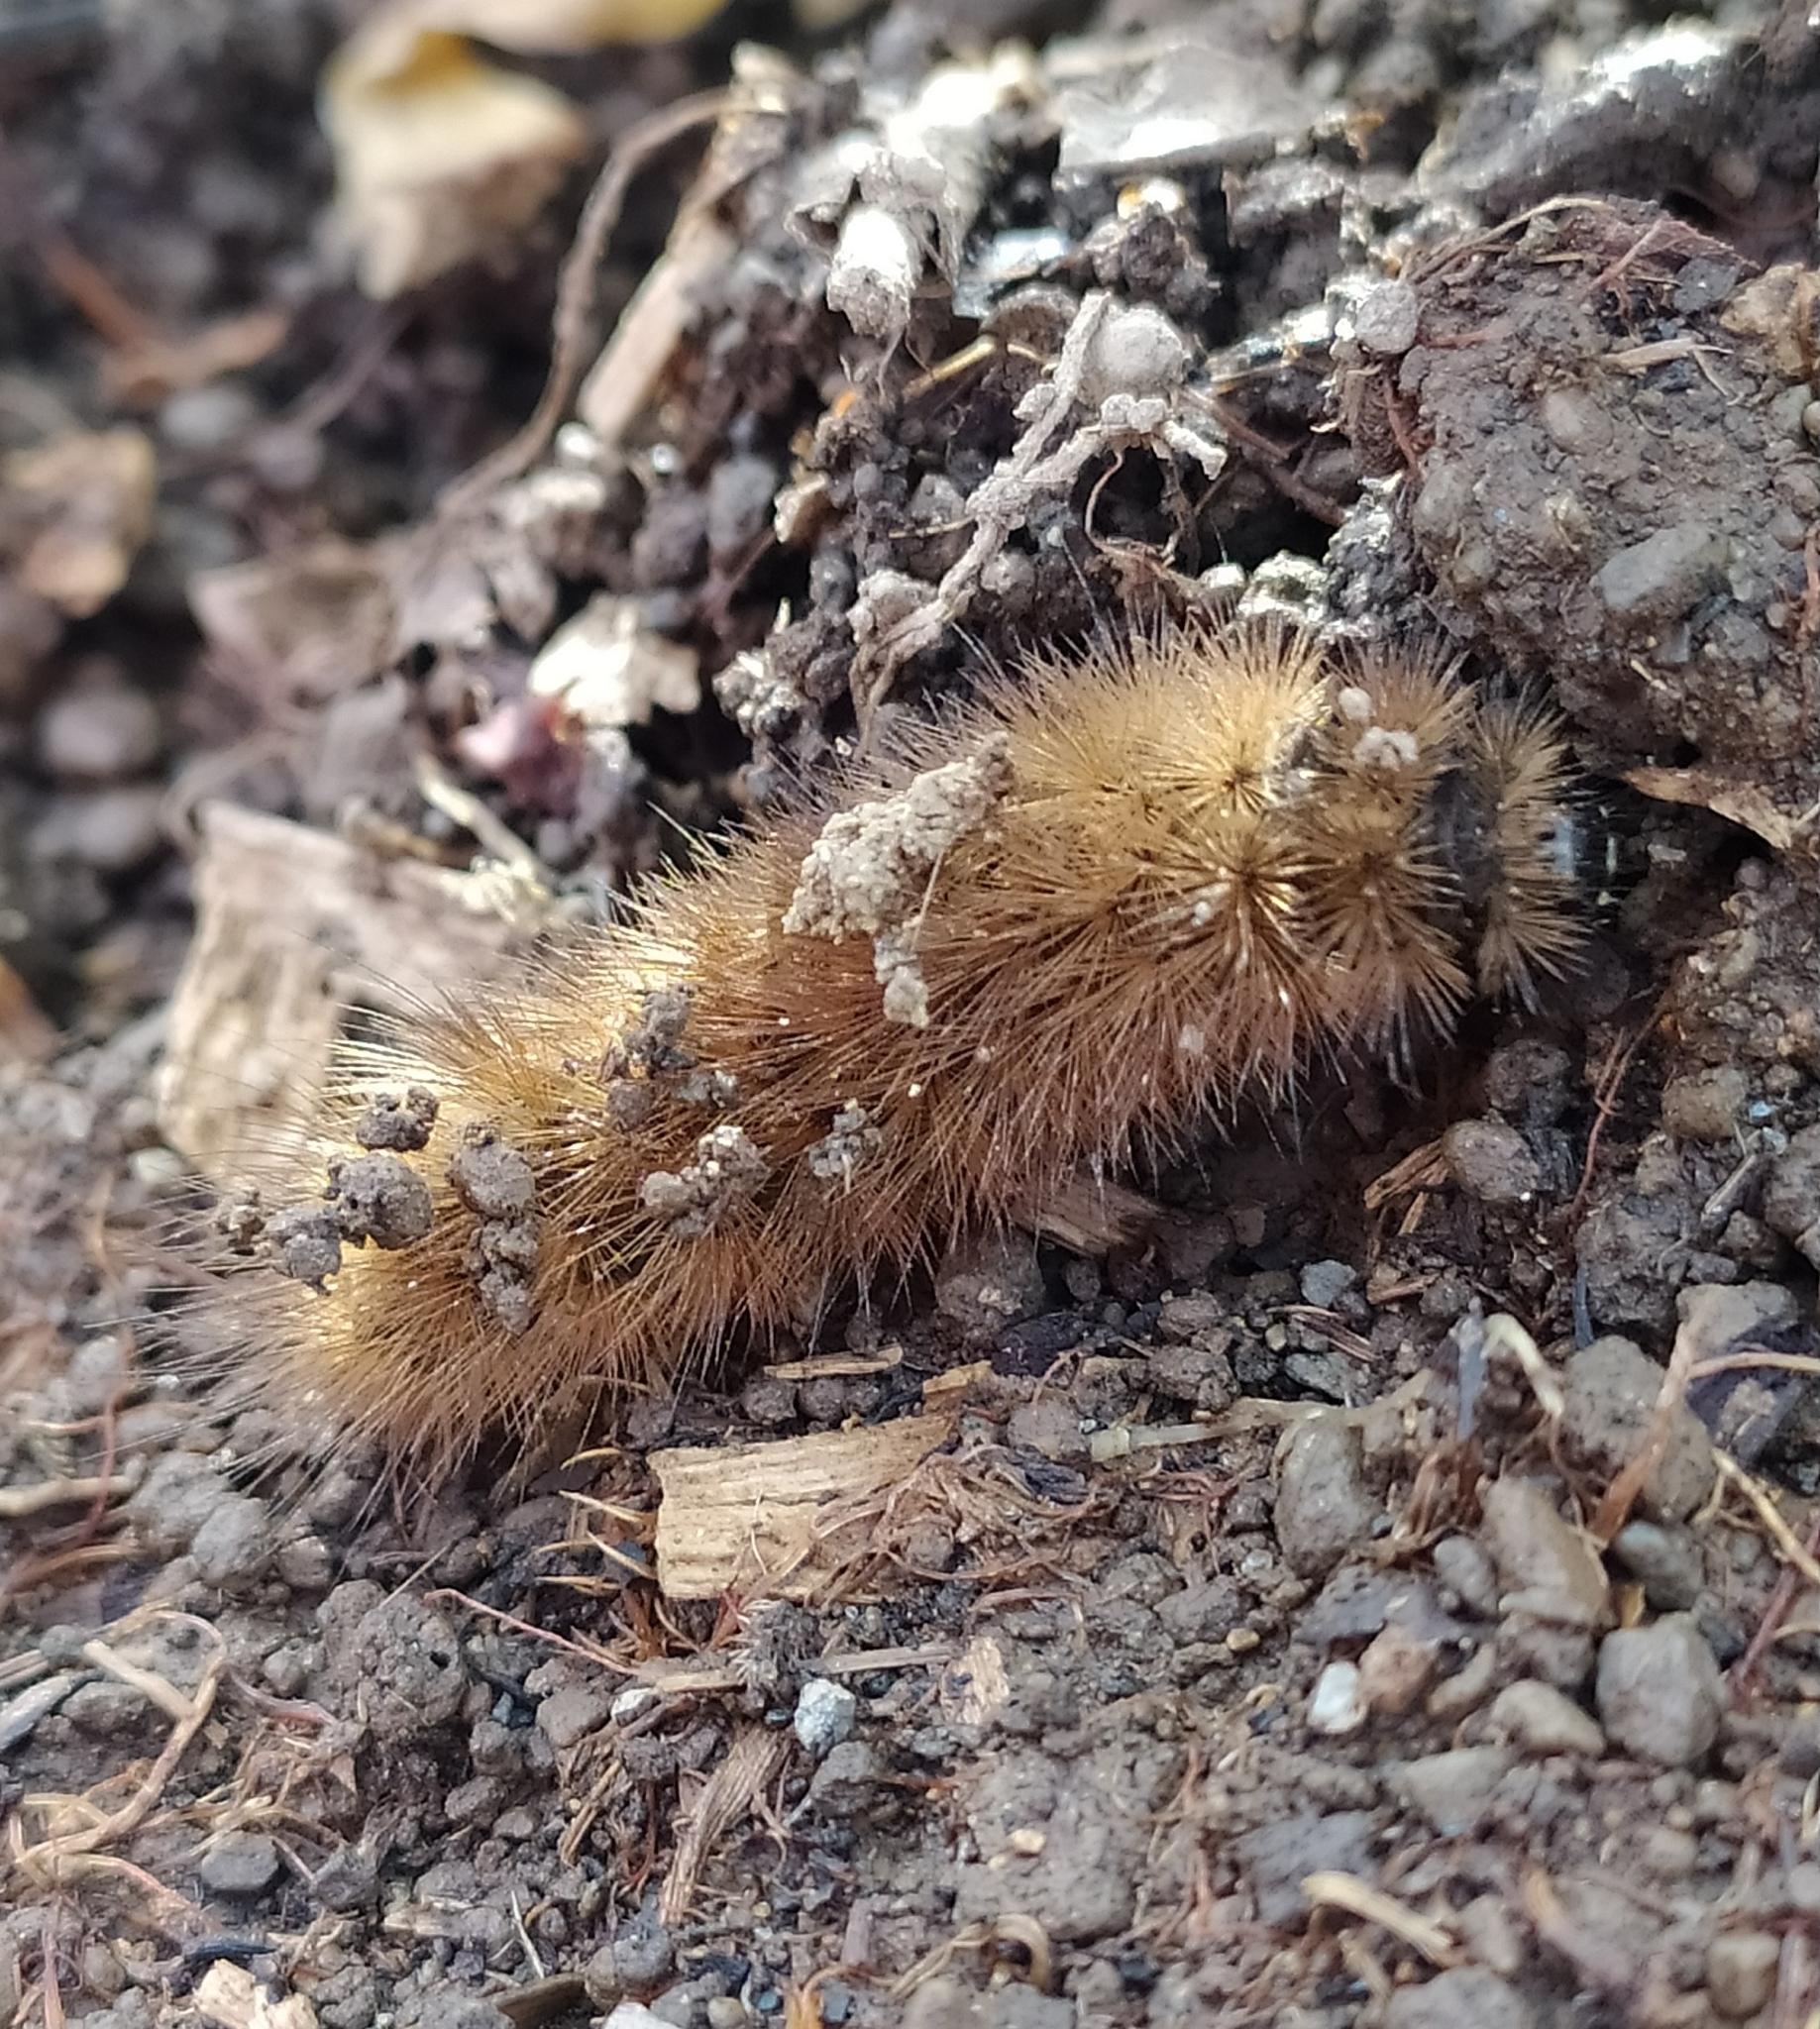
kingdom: Animalia
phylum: Arthropoda
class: Insecta
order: Lepidoptera
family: Erebidae
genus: Phragmatobia
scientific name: Phragmatobia fuliginosa
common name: Ruby tiger
